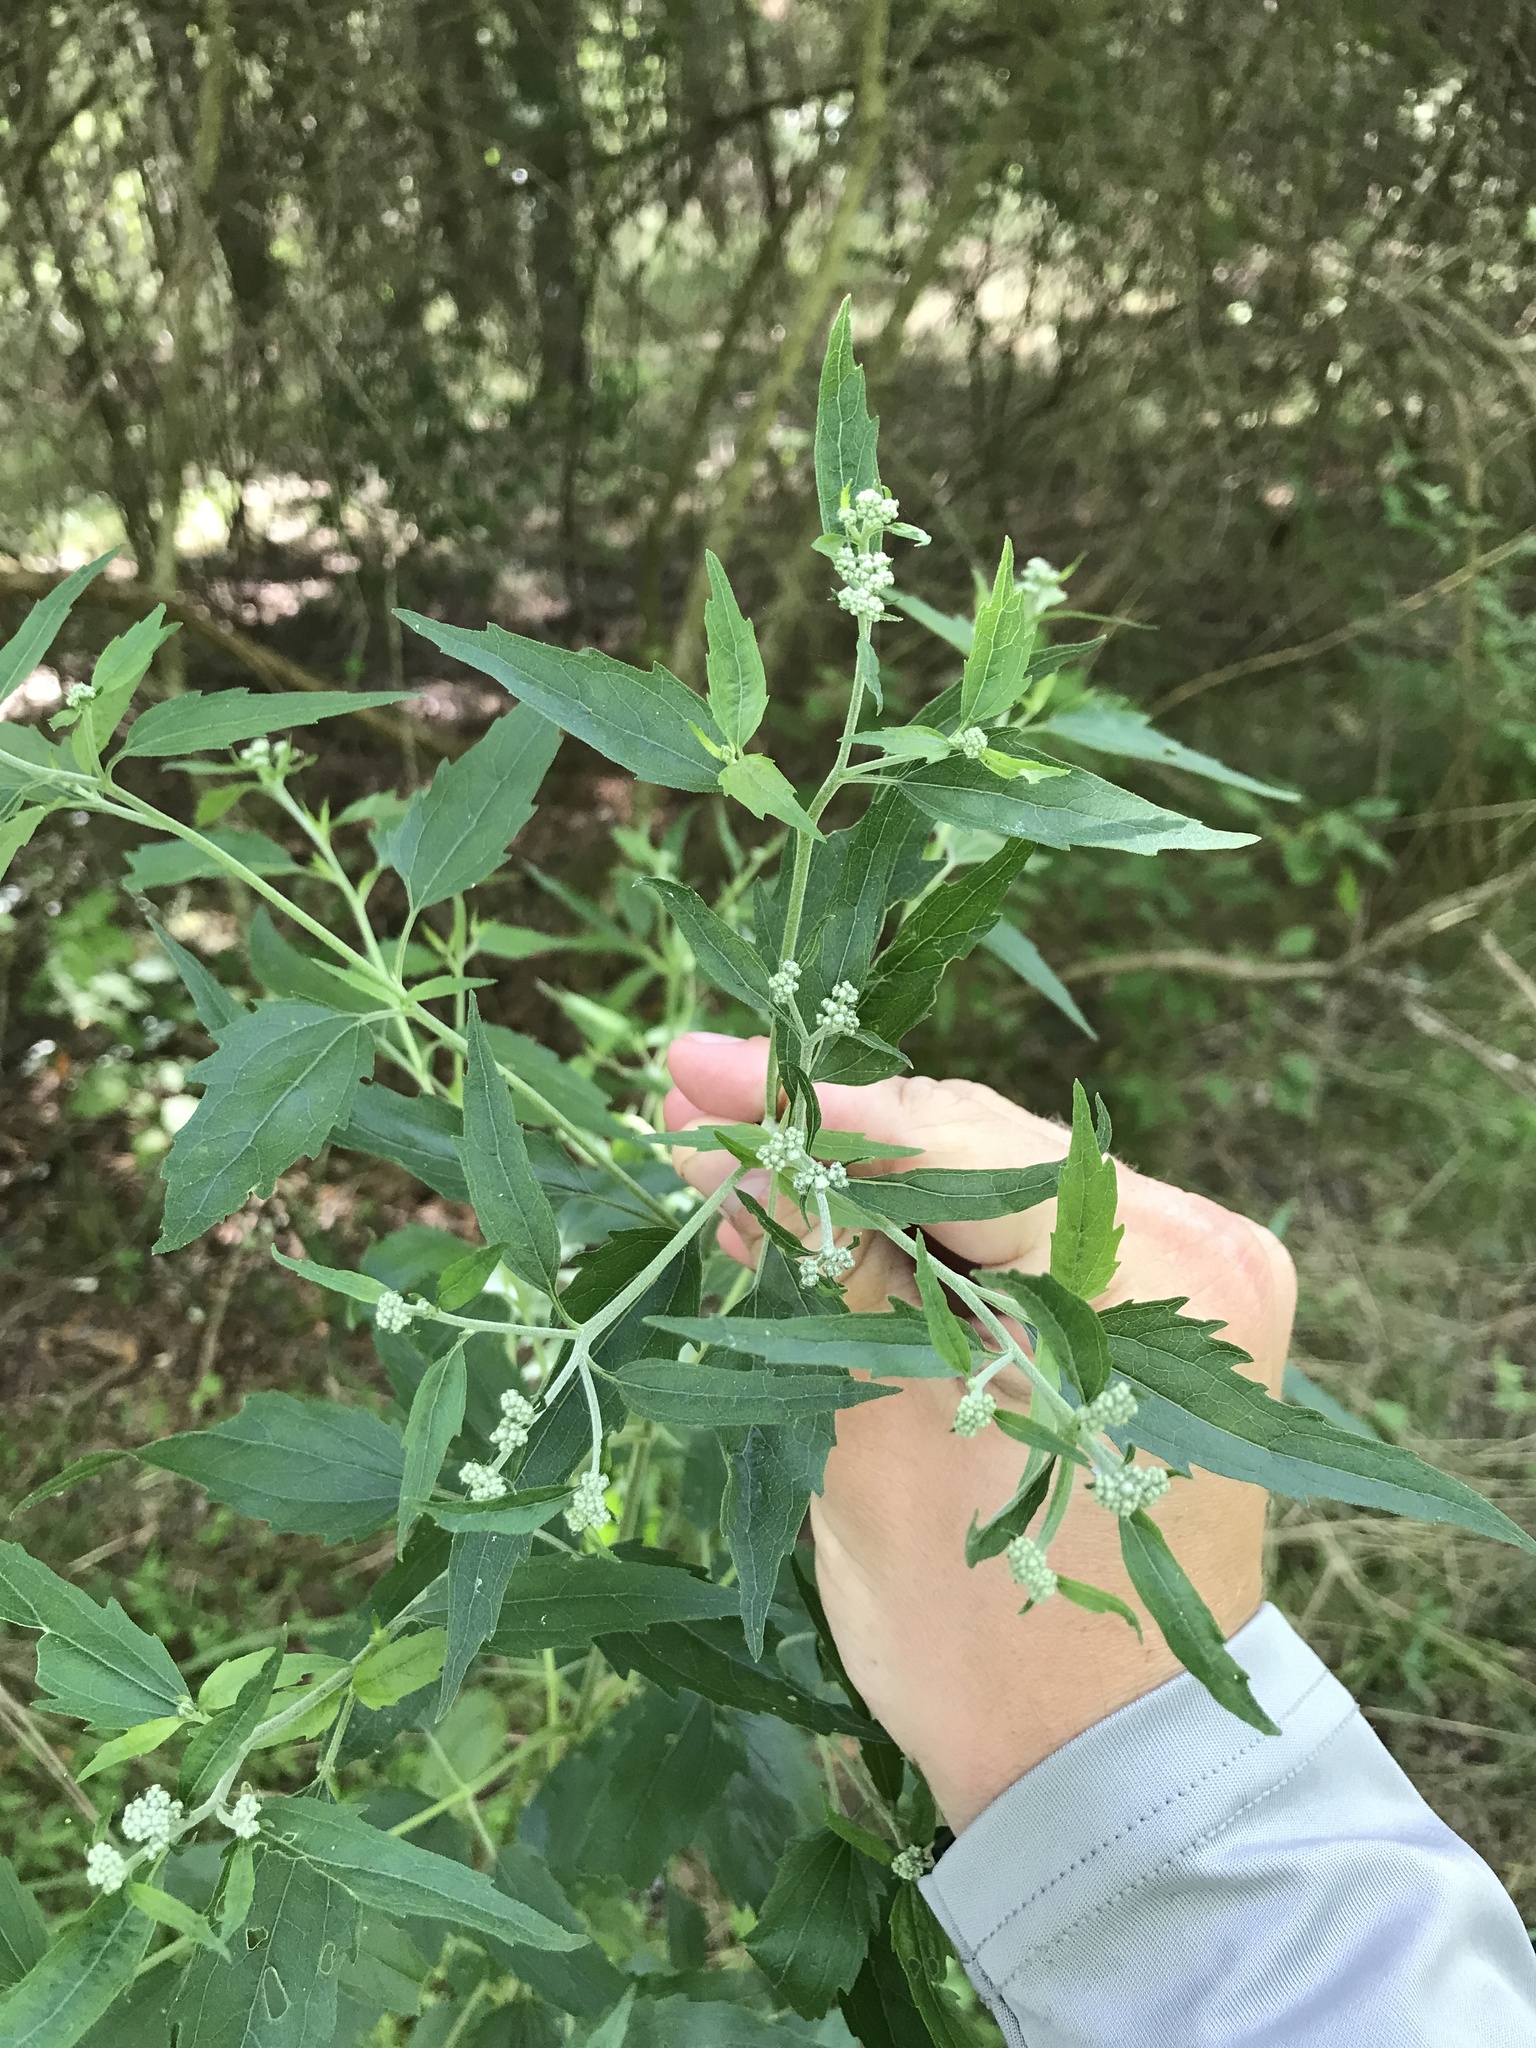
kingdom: Plantae
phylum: Tracheophyta
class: Magnoliopsida
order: Asterales
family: Asteraceae
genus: Eupatorium
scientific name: Eupatorium serotinum
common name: Late boneset
